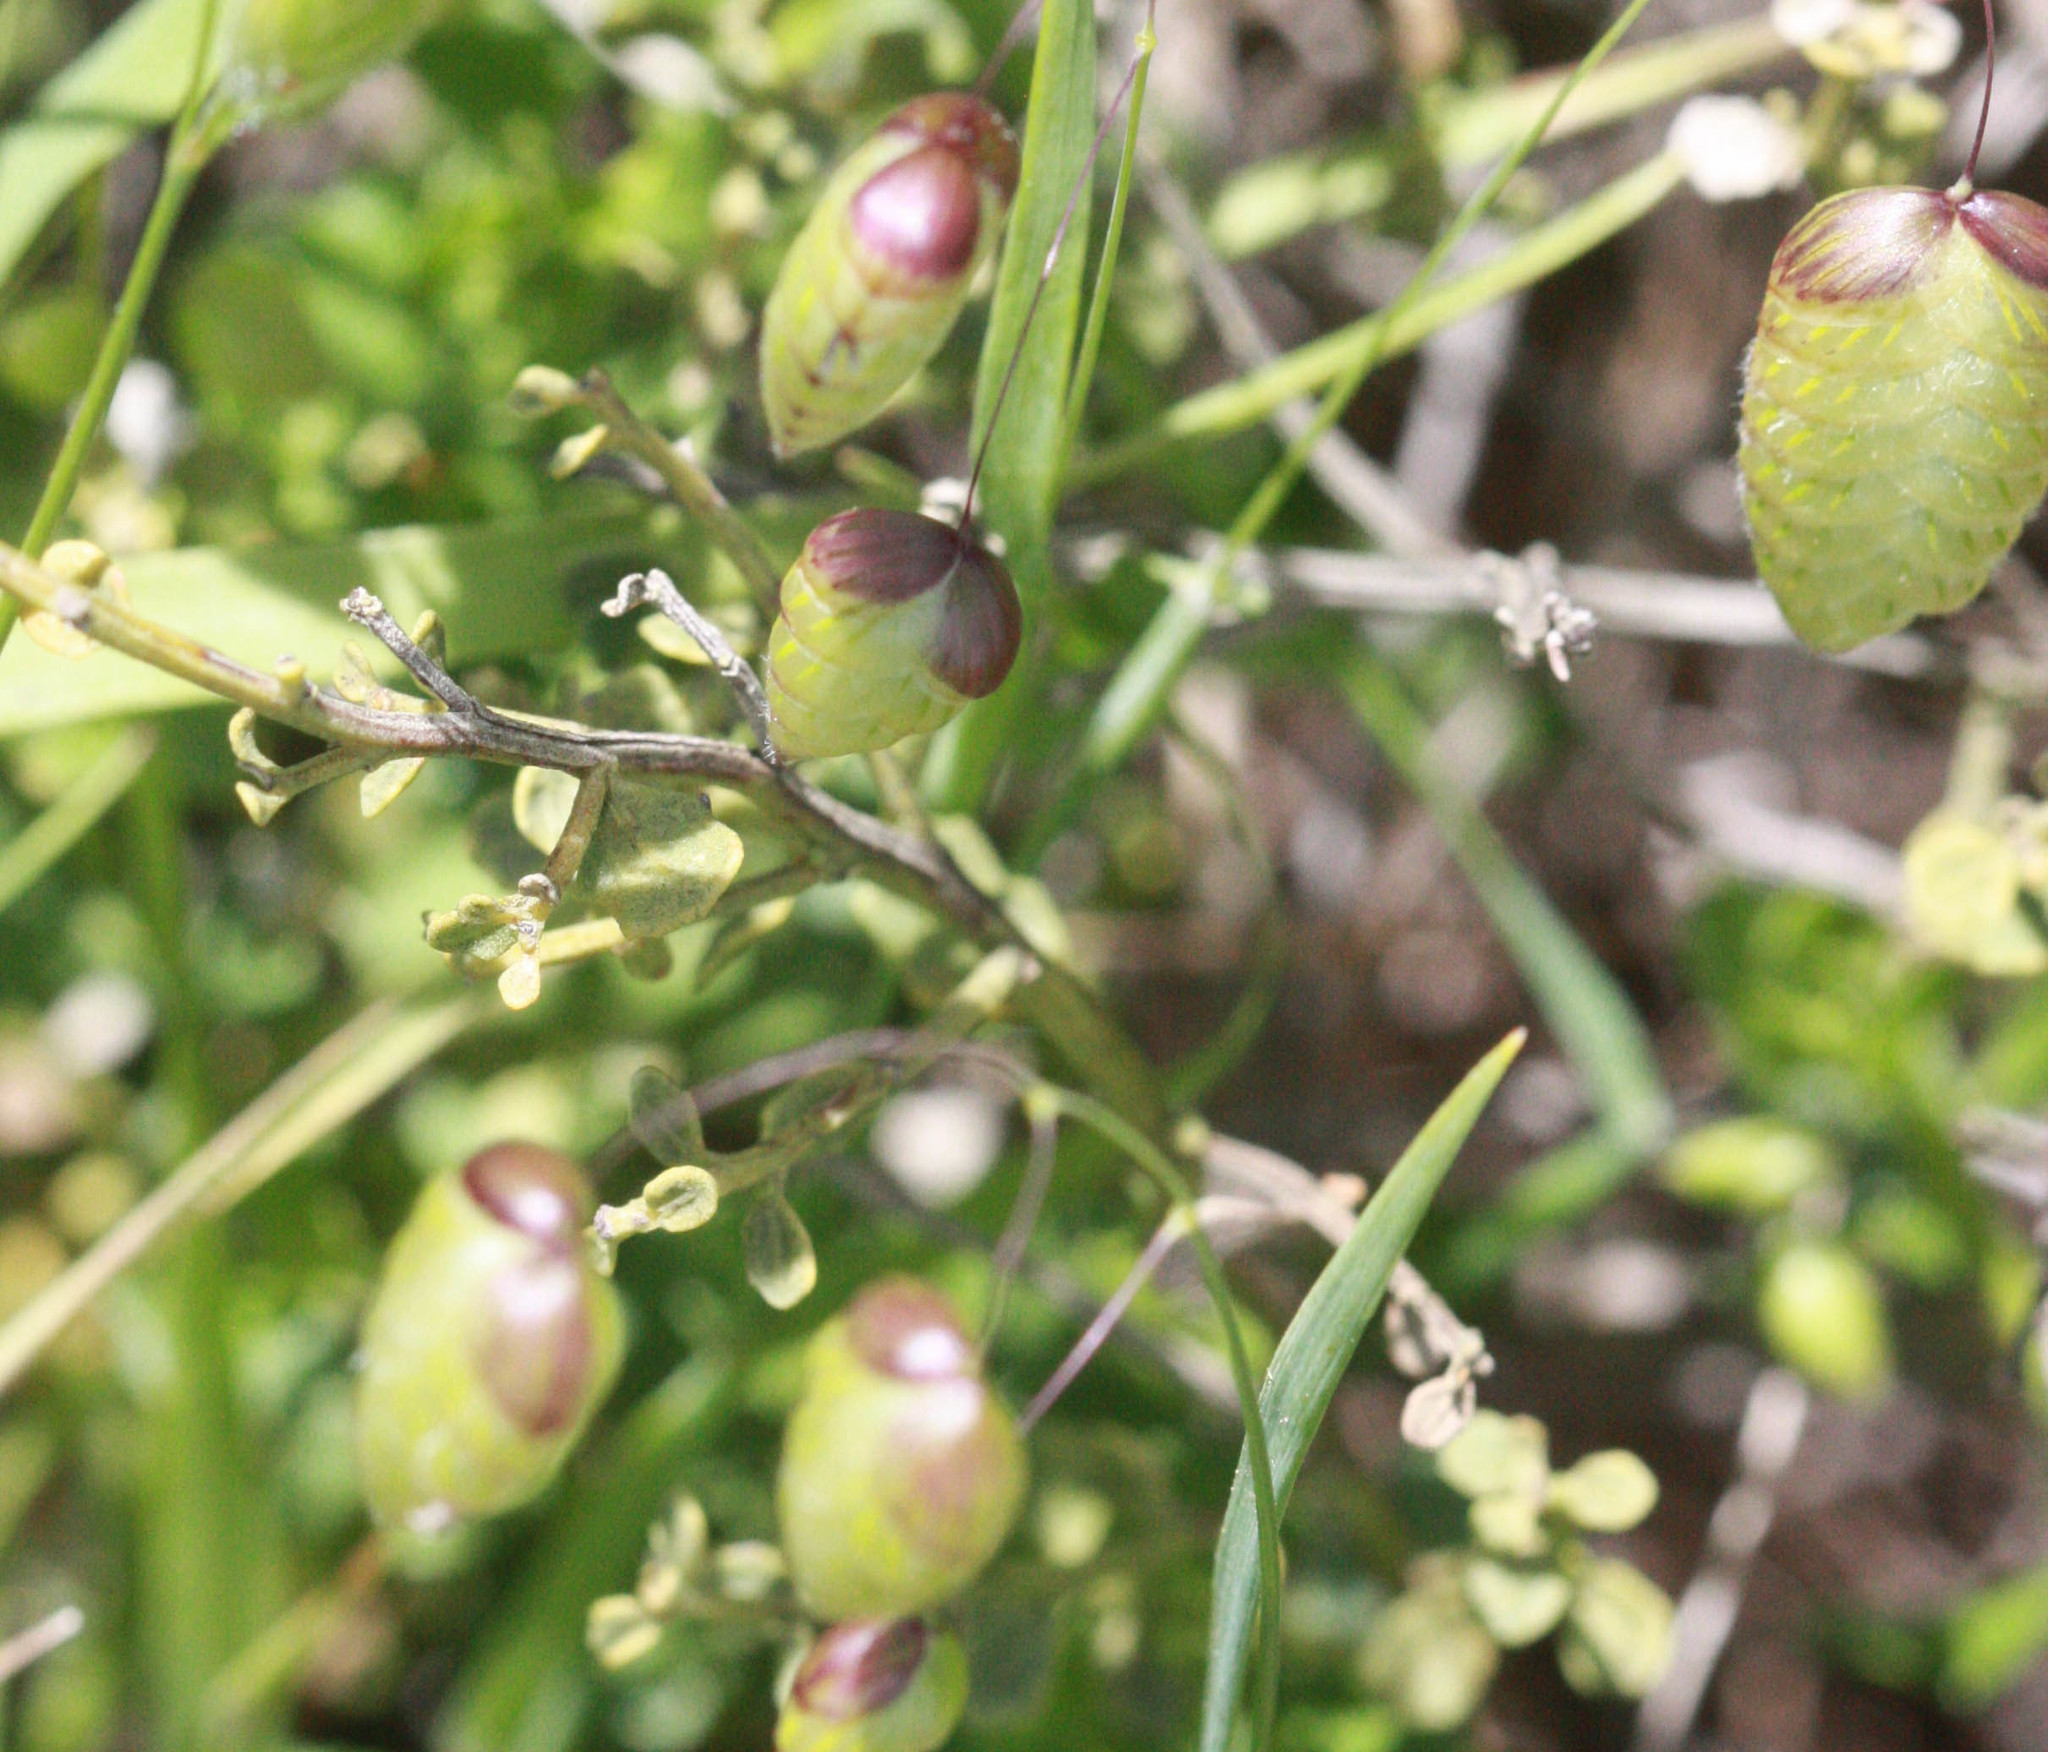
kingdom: Plantae
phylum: Tracheophyta
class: Liliopsida
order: Poales
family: Poaceae
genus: Briza
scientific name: Briza maxima
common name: Big quakinggrass
